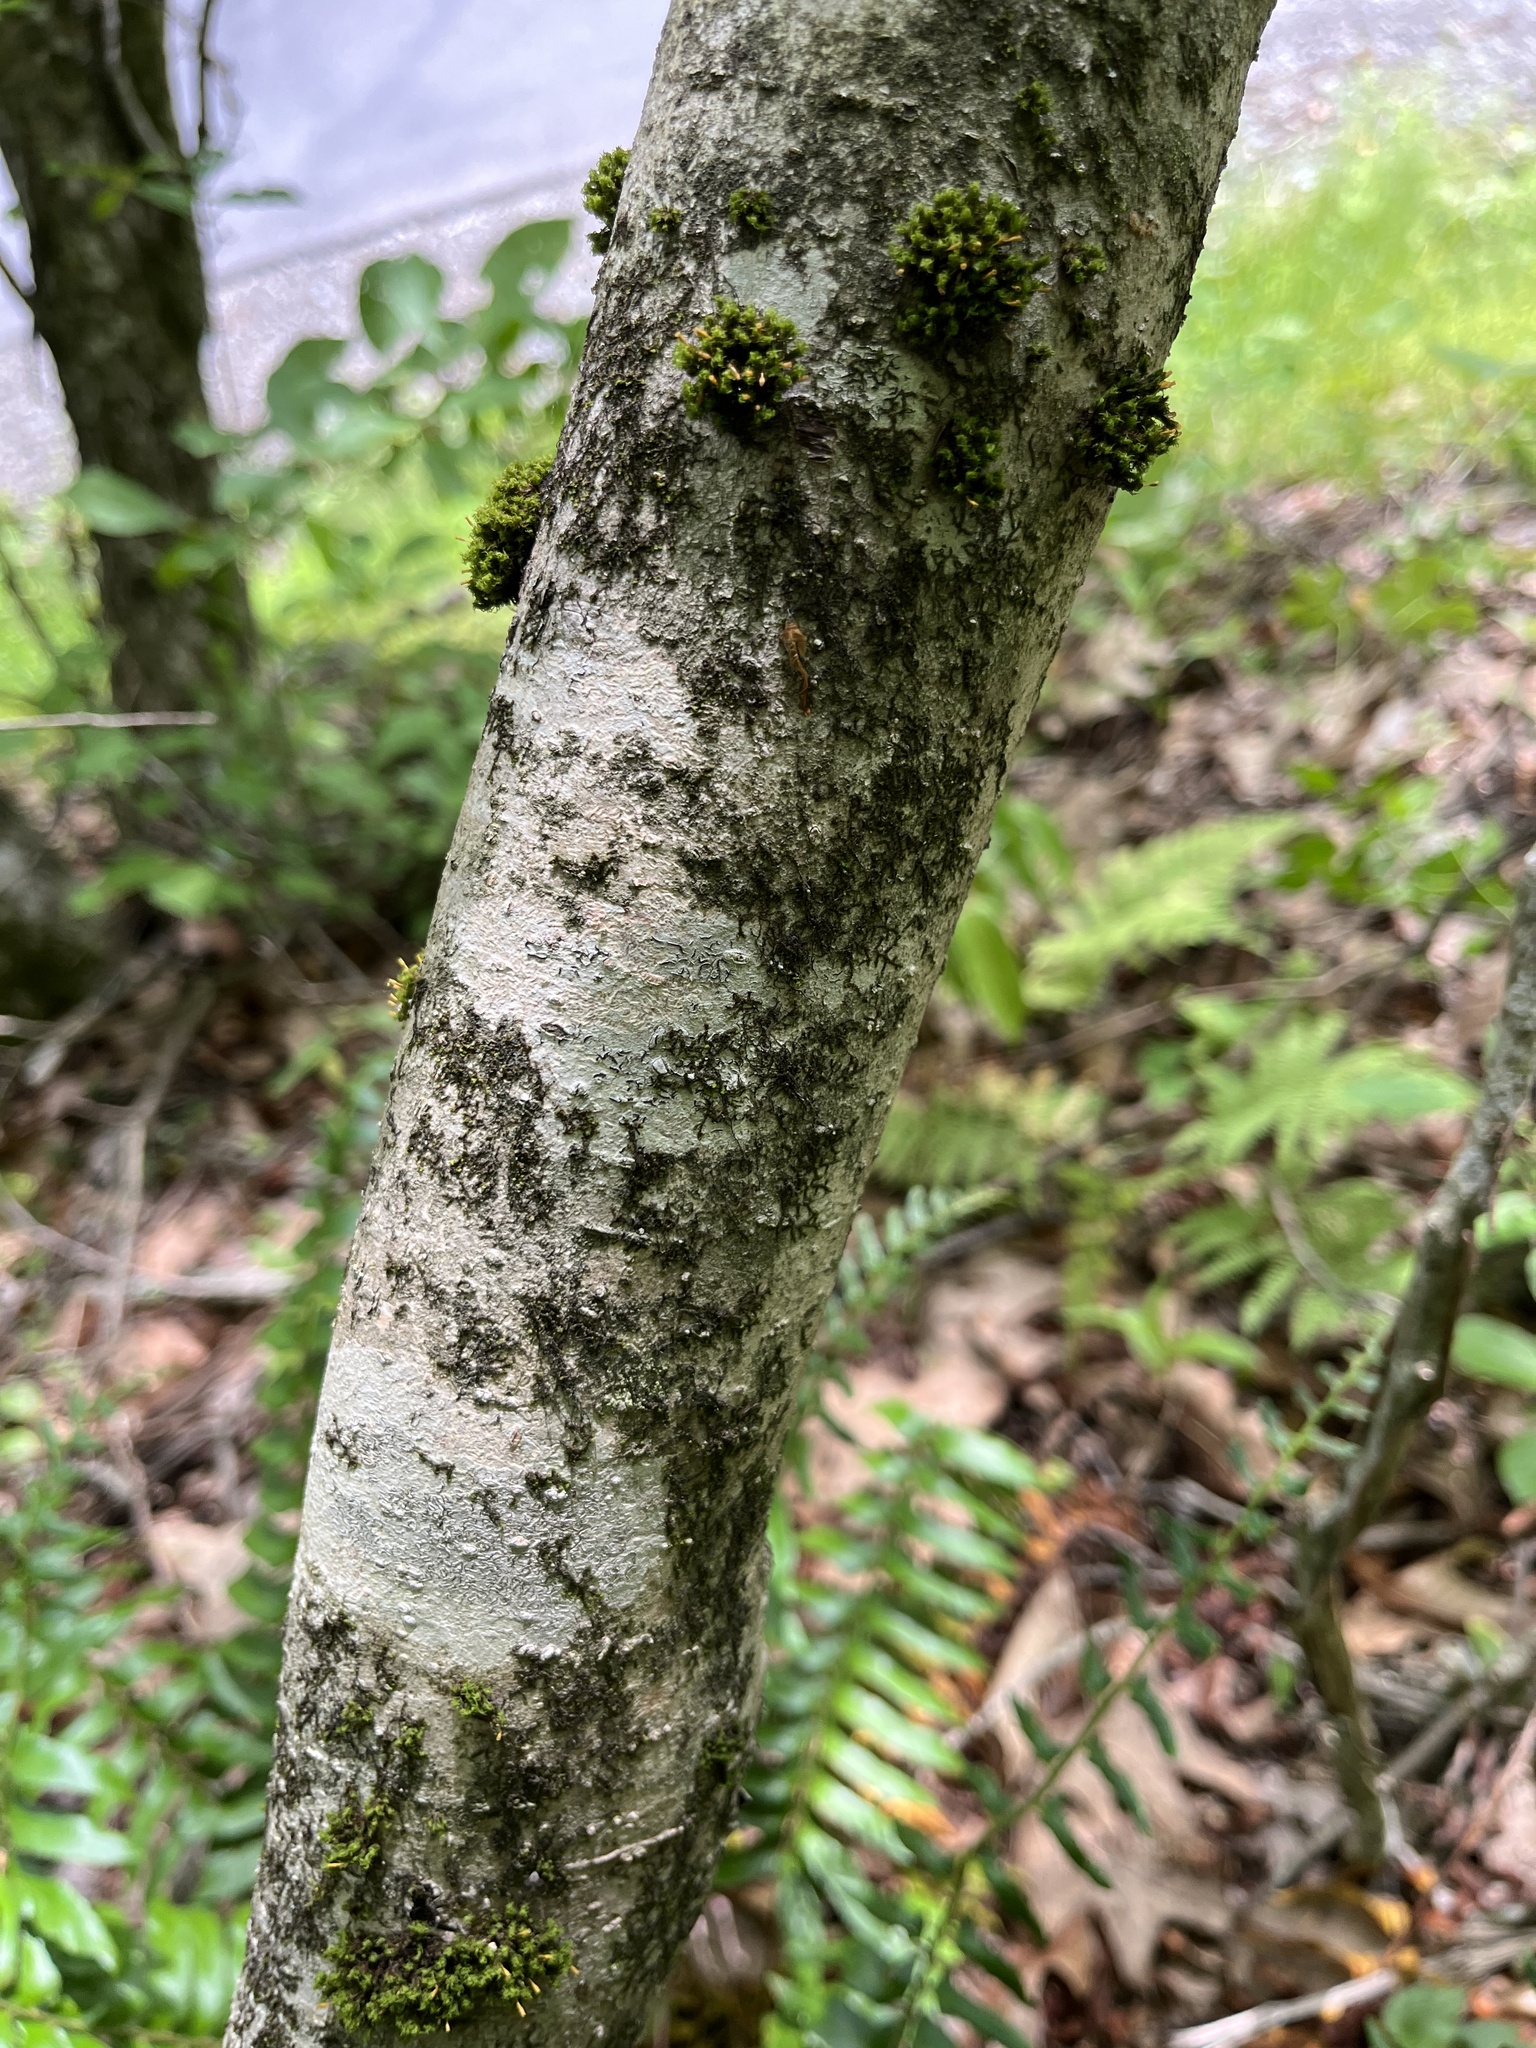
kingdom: Plantae
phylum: Tracheophyta
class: Magnoliopsida
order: Saxifragales
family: Hamamelidaceae
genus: Hamamelis
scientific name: Hamamelis virginiana
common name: Witch-hazel
